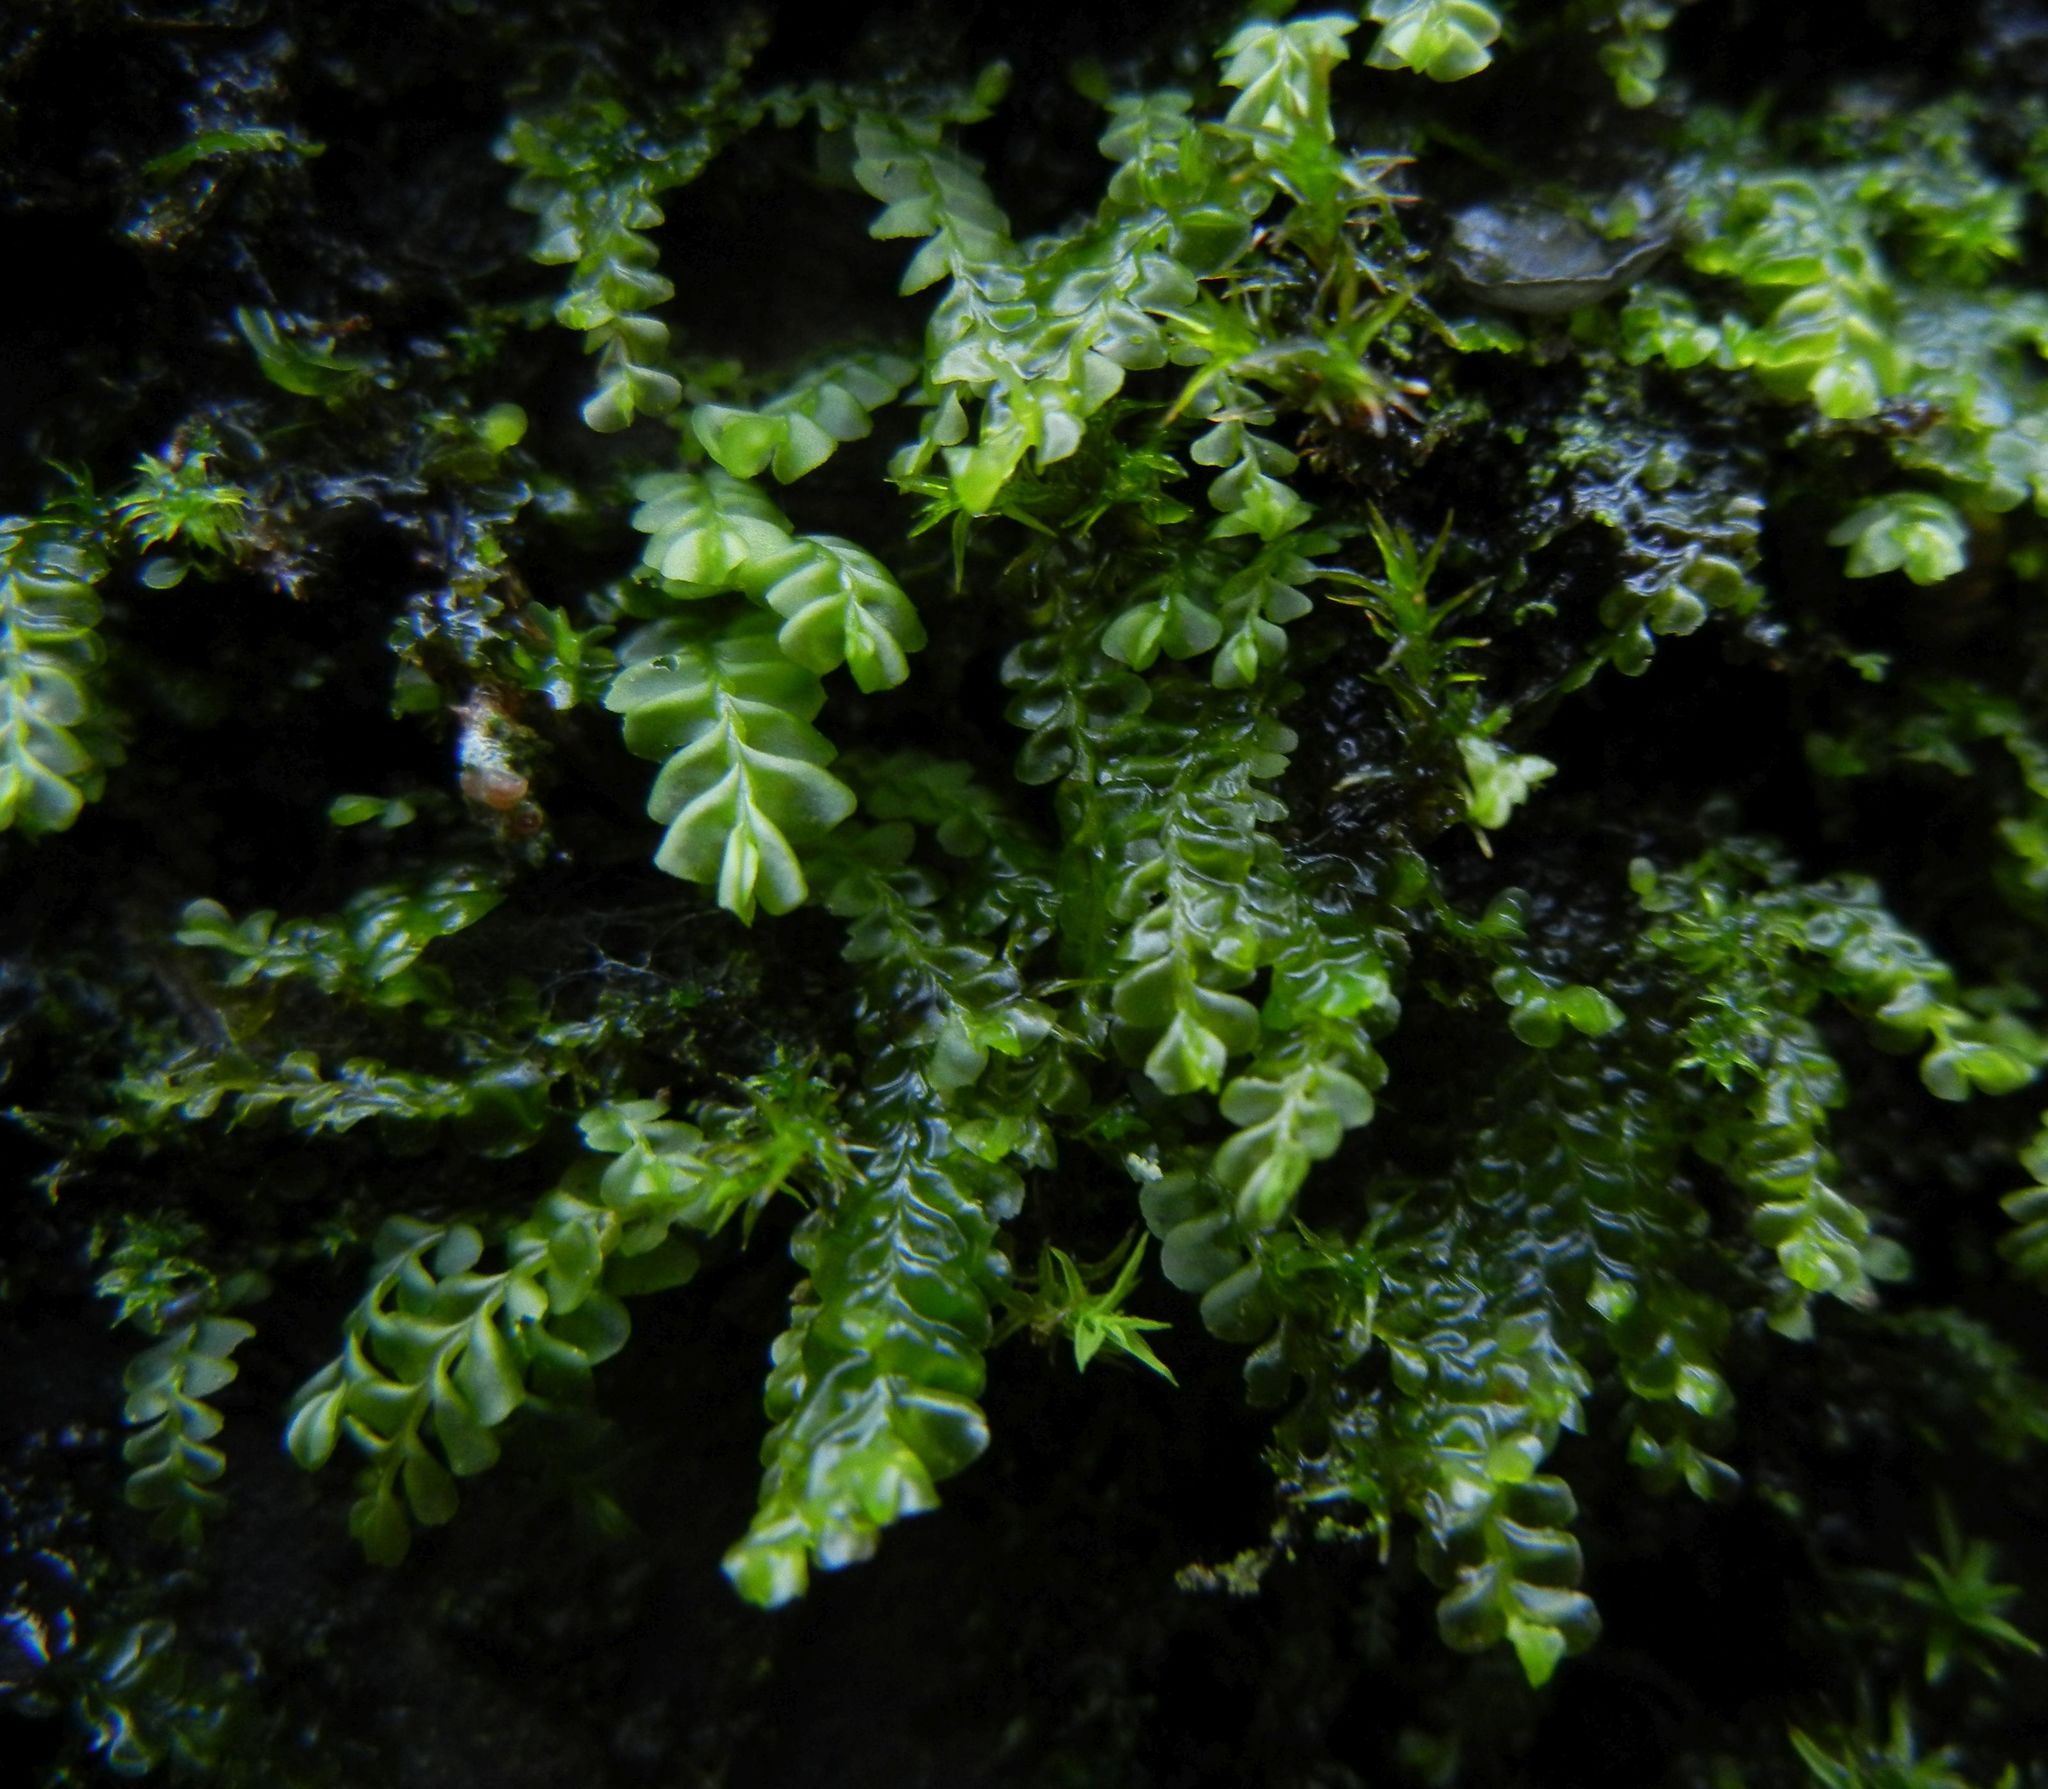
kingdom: Plantae
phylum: Marchantiophyta
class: Jungermanniopsida
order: Jungermanniales
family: Plagiochilaceae
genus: Plagiochila
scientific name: Plagiochila porelloides
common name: Lesser featherwort
